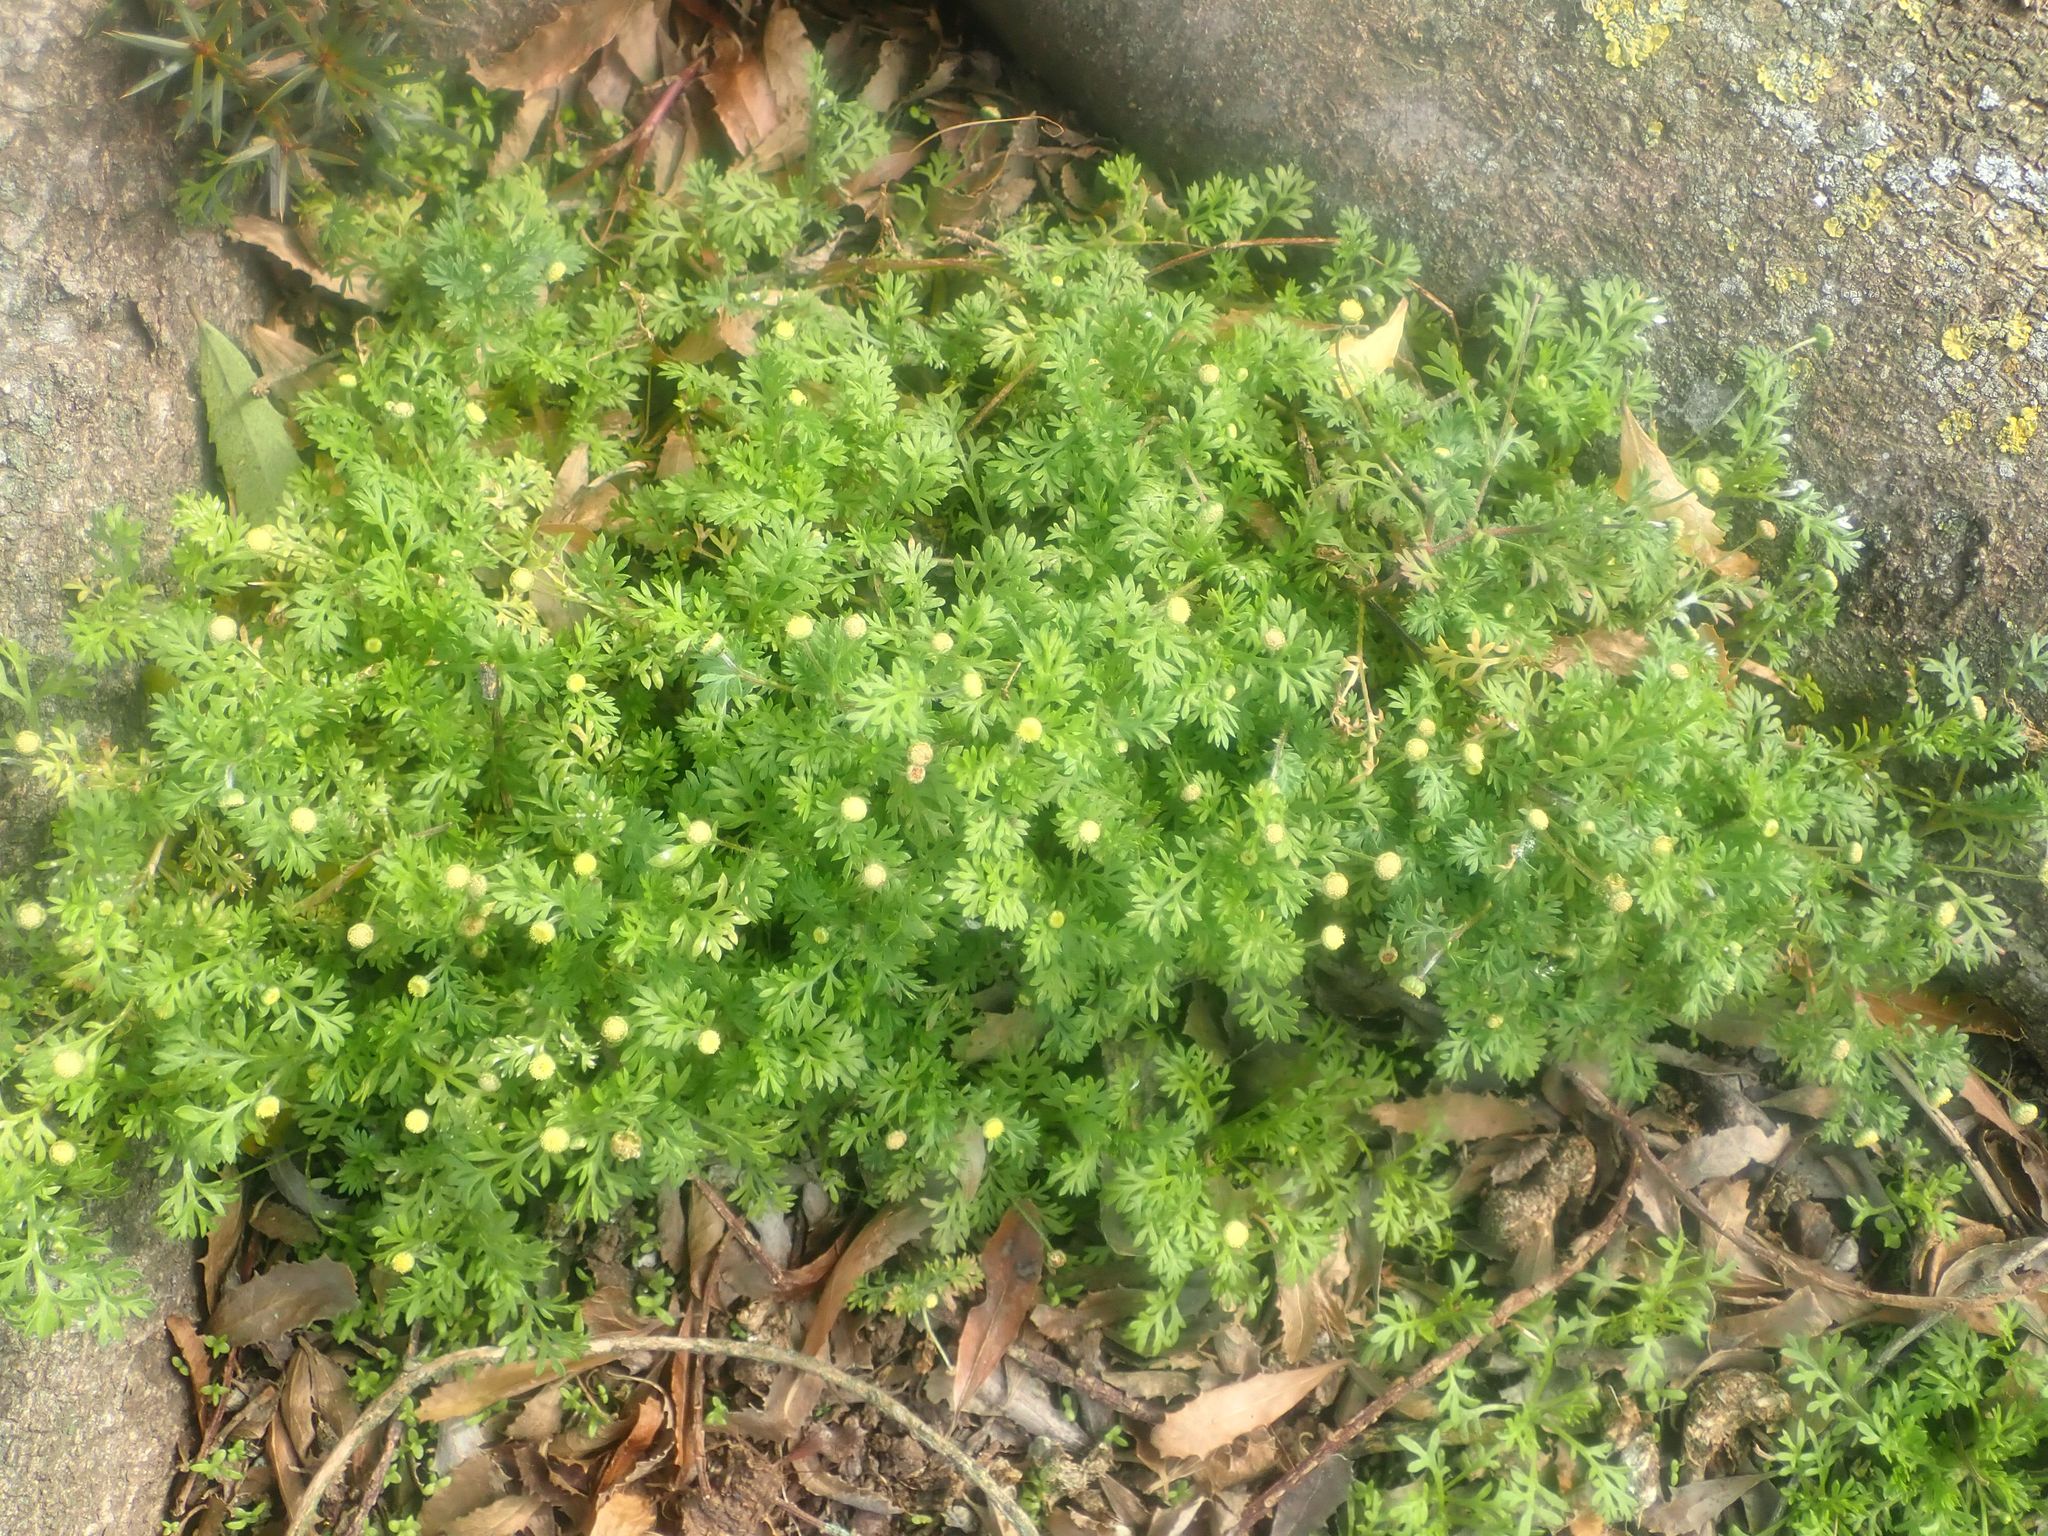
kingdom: Plantae
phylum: Tracheophyta
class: Magnoliopsida
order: Asterales
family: Asteraceae
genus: Cotula
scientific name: Cotula australis
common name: Australian waterbuttons
